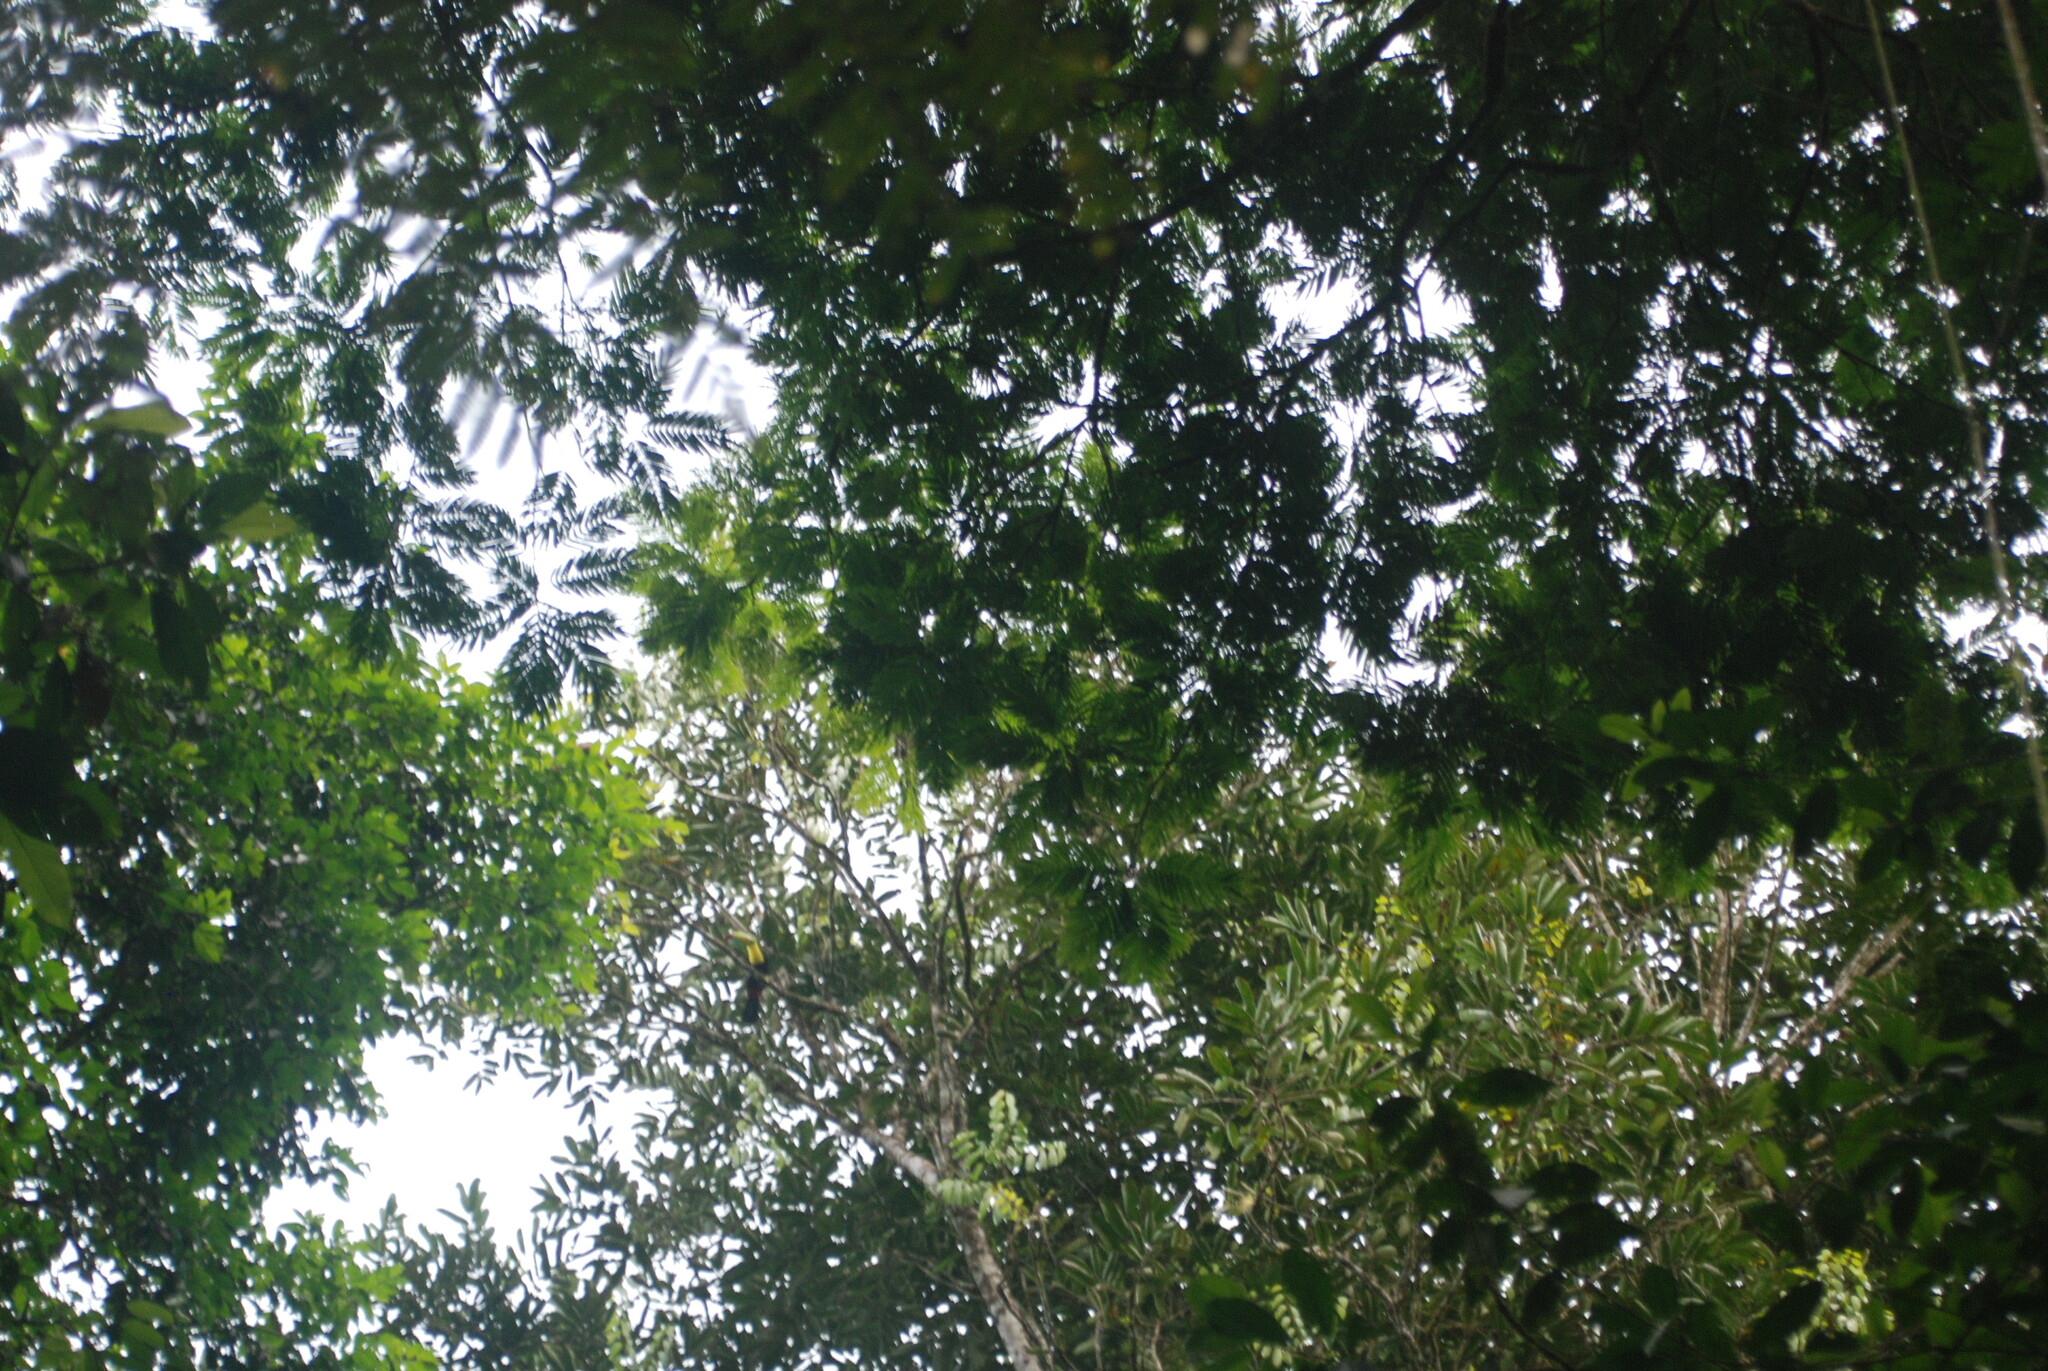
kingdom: Animalia
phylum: Chordata
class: Aves
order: Piciformes
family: Ramphastidae
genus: Ramphastos
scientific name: Ramphastos sulfuratus
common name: Keel-billed toucan
